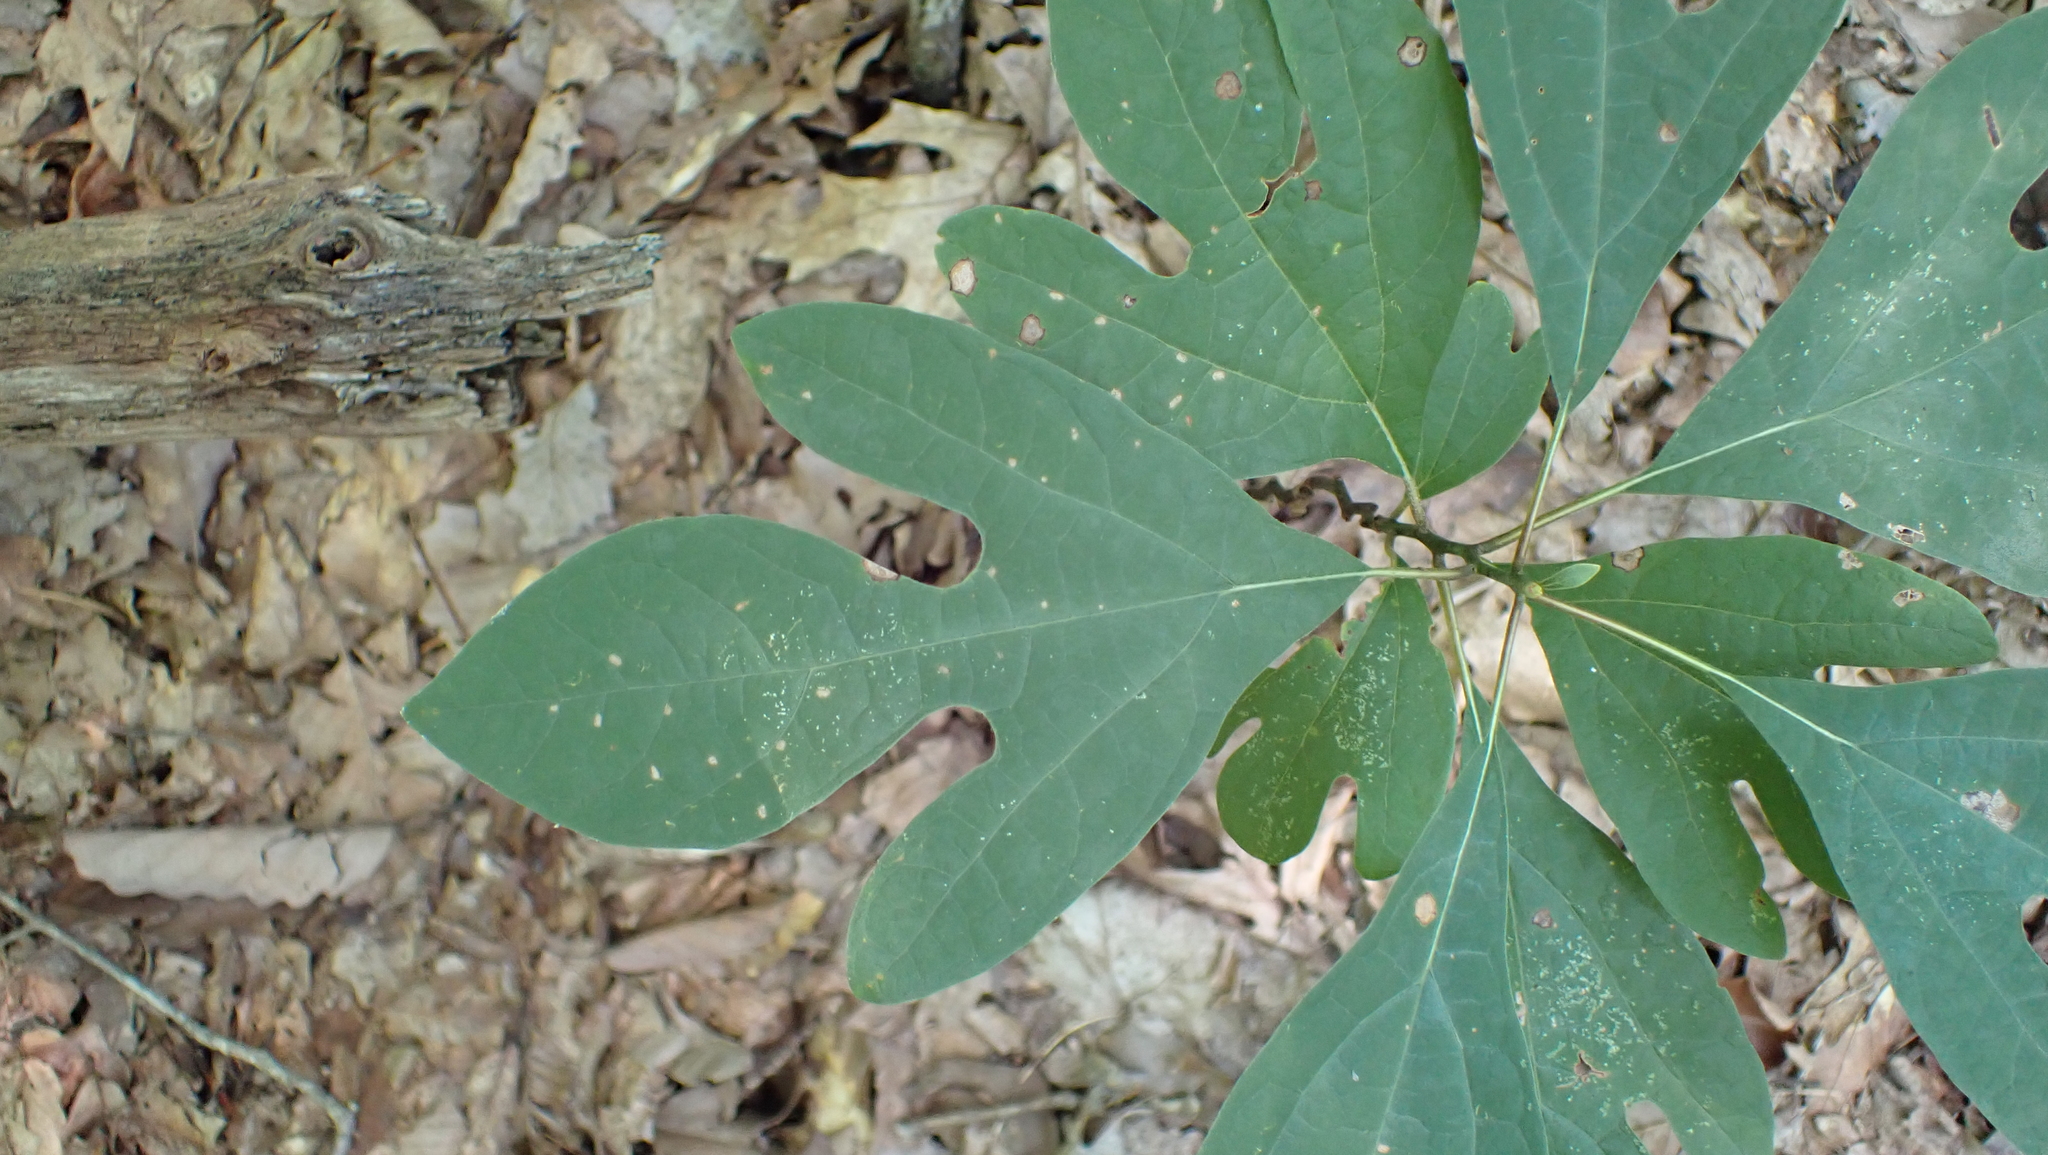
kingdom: Plantae
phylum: Tracheophyta
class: Magnoliopsida
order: Laurales
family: Lauraceae
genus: Sassafras
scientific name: Sassafras albidum
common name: Sassafras
